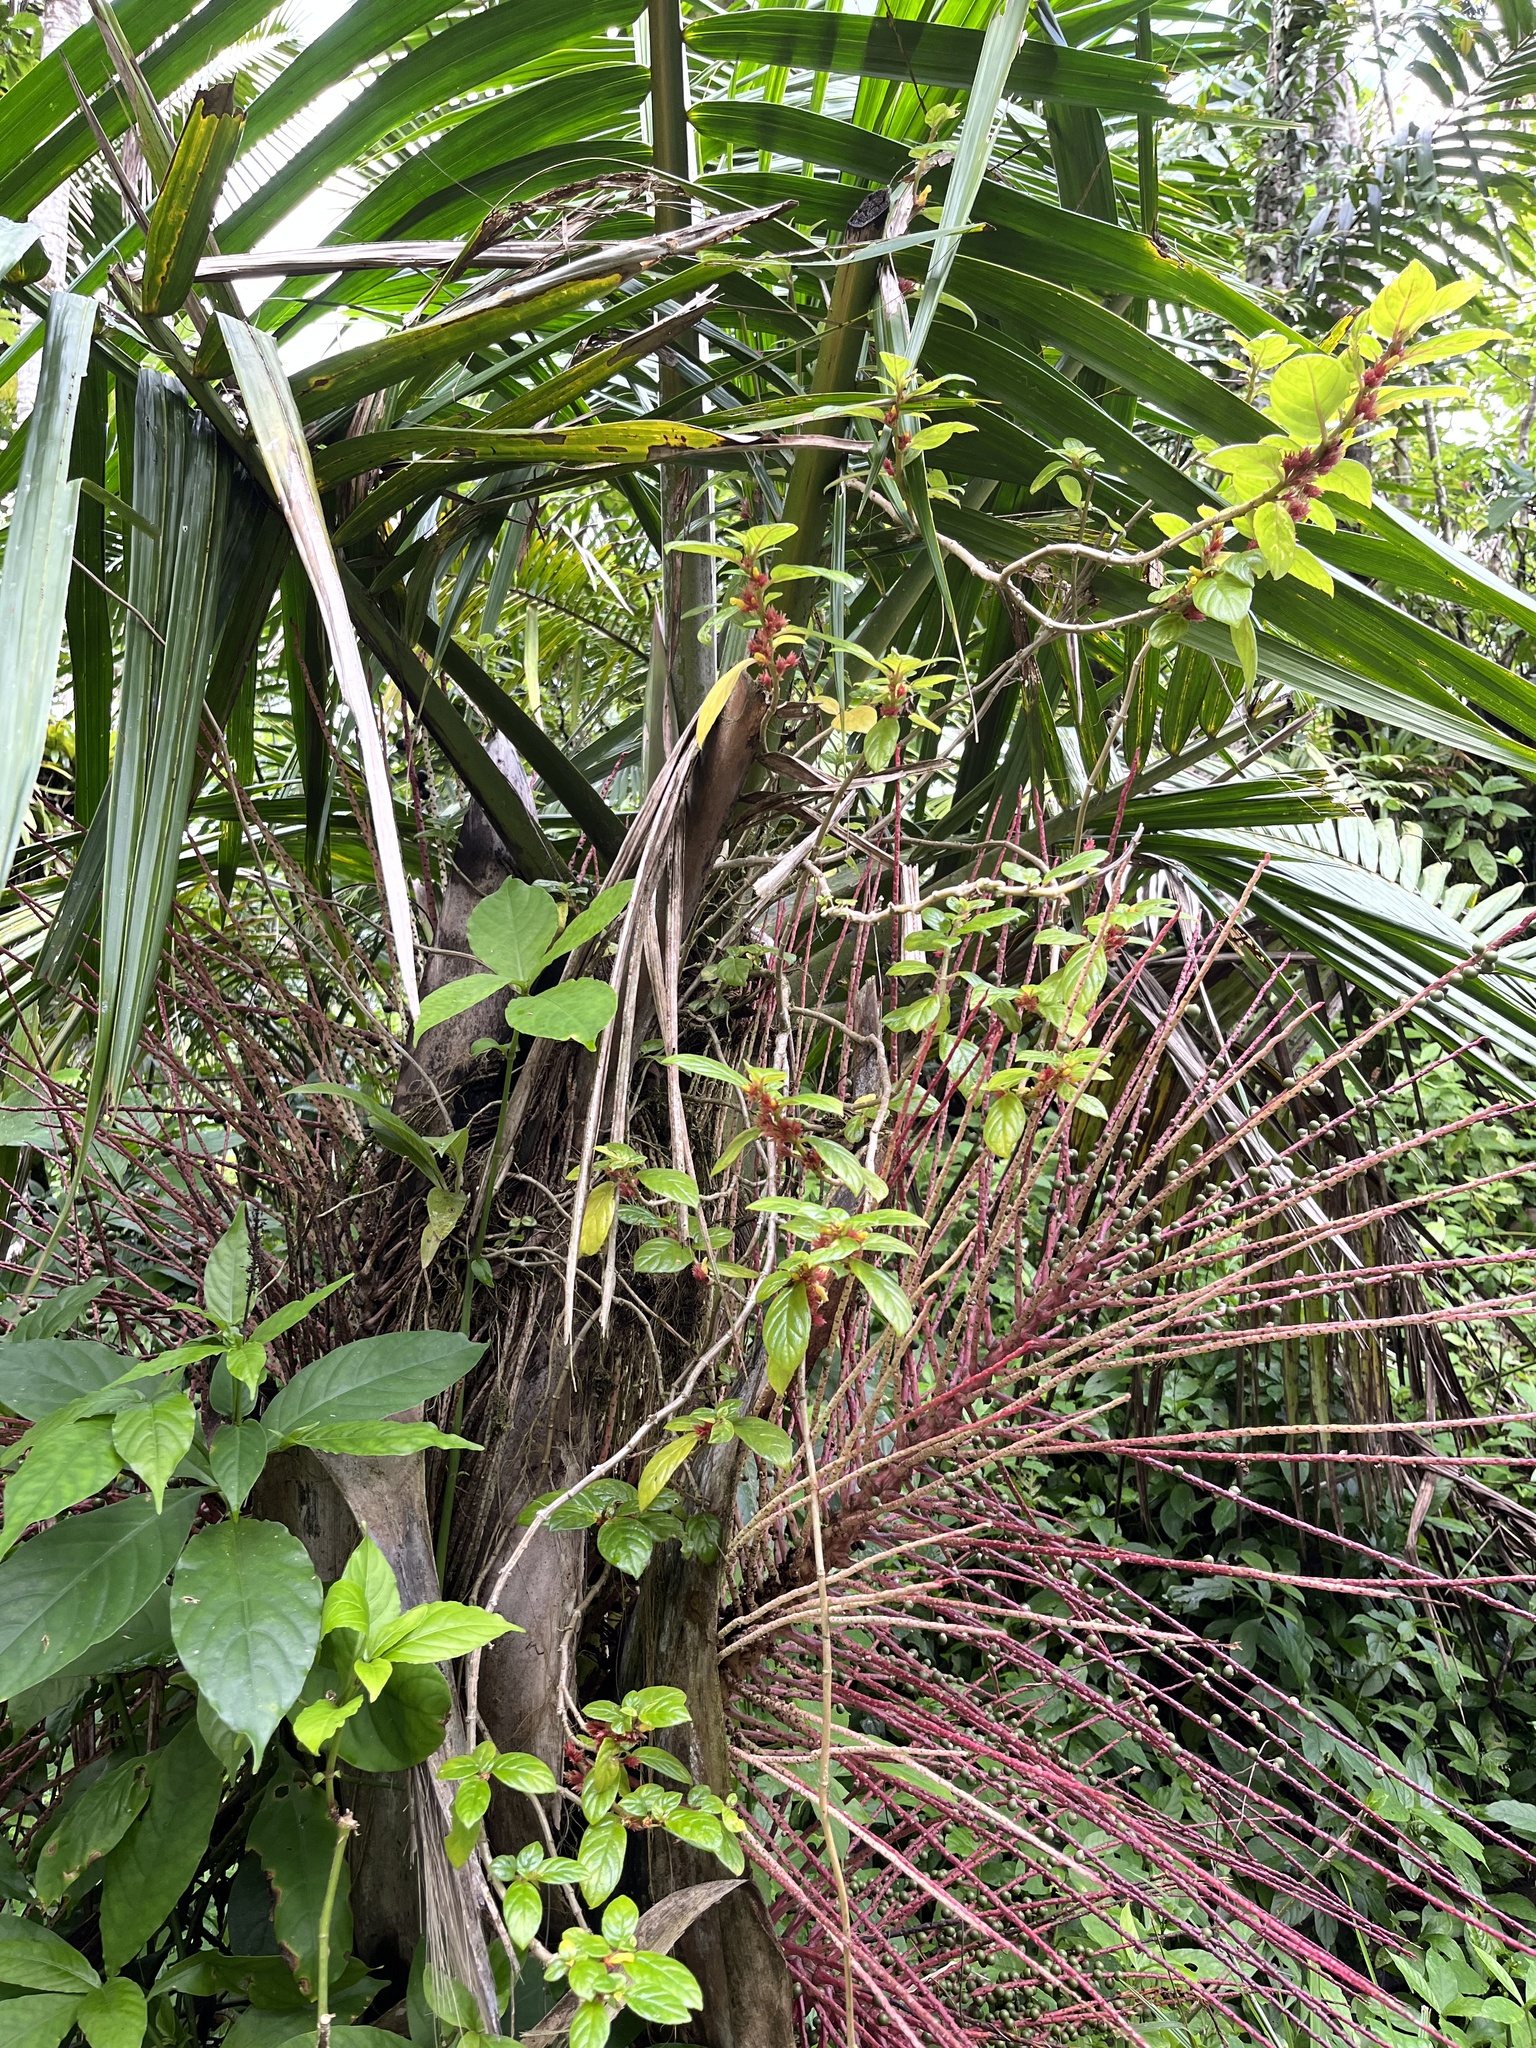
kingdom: Plantae
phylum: Tracheophyta
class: Liliopsida
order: Arecales
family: Arecaceae
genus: Prestoea
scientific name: Prestoea acuminata
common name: Sierran palm
